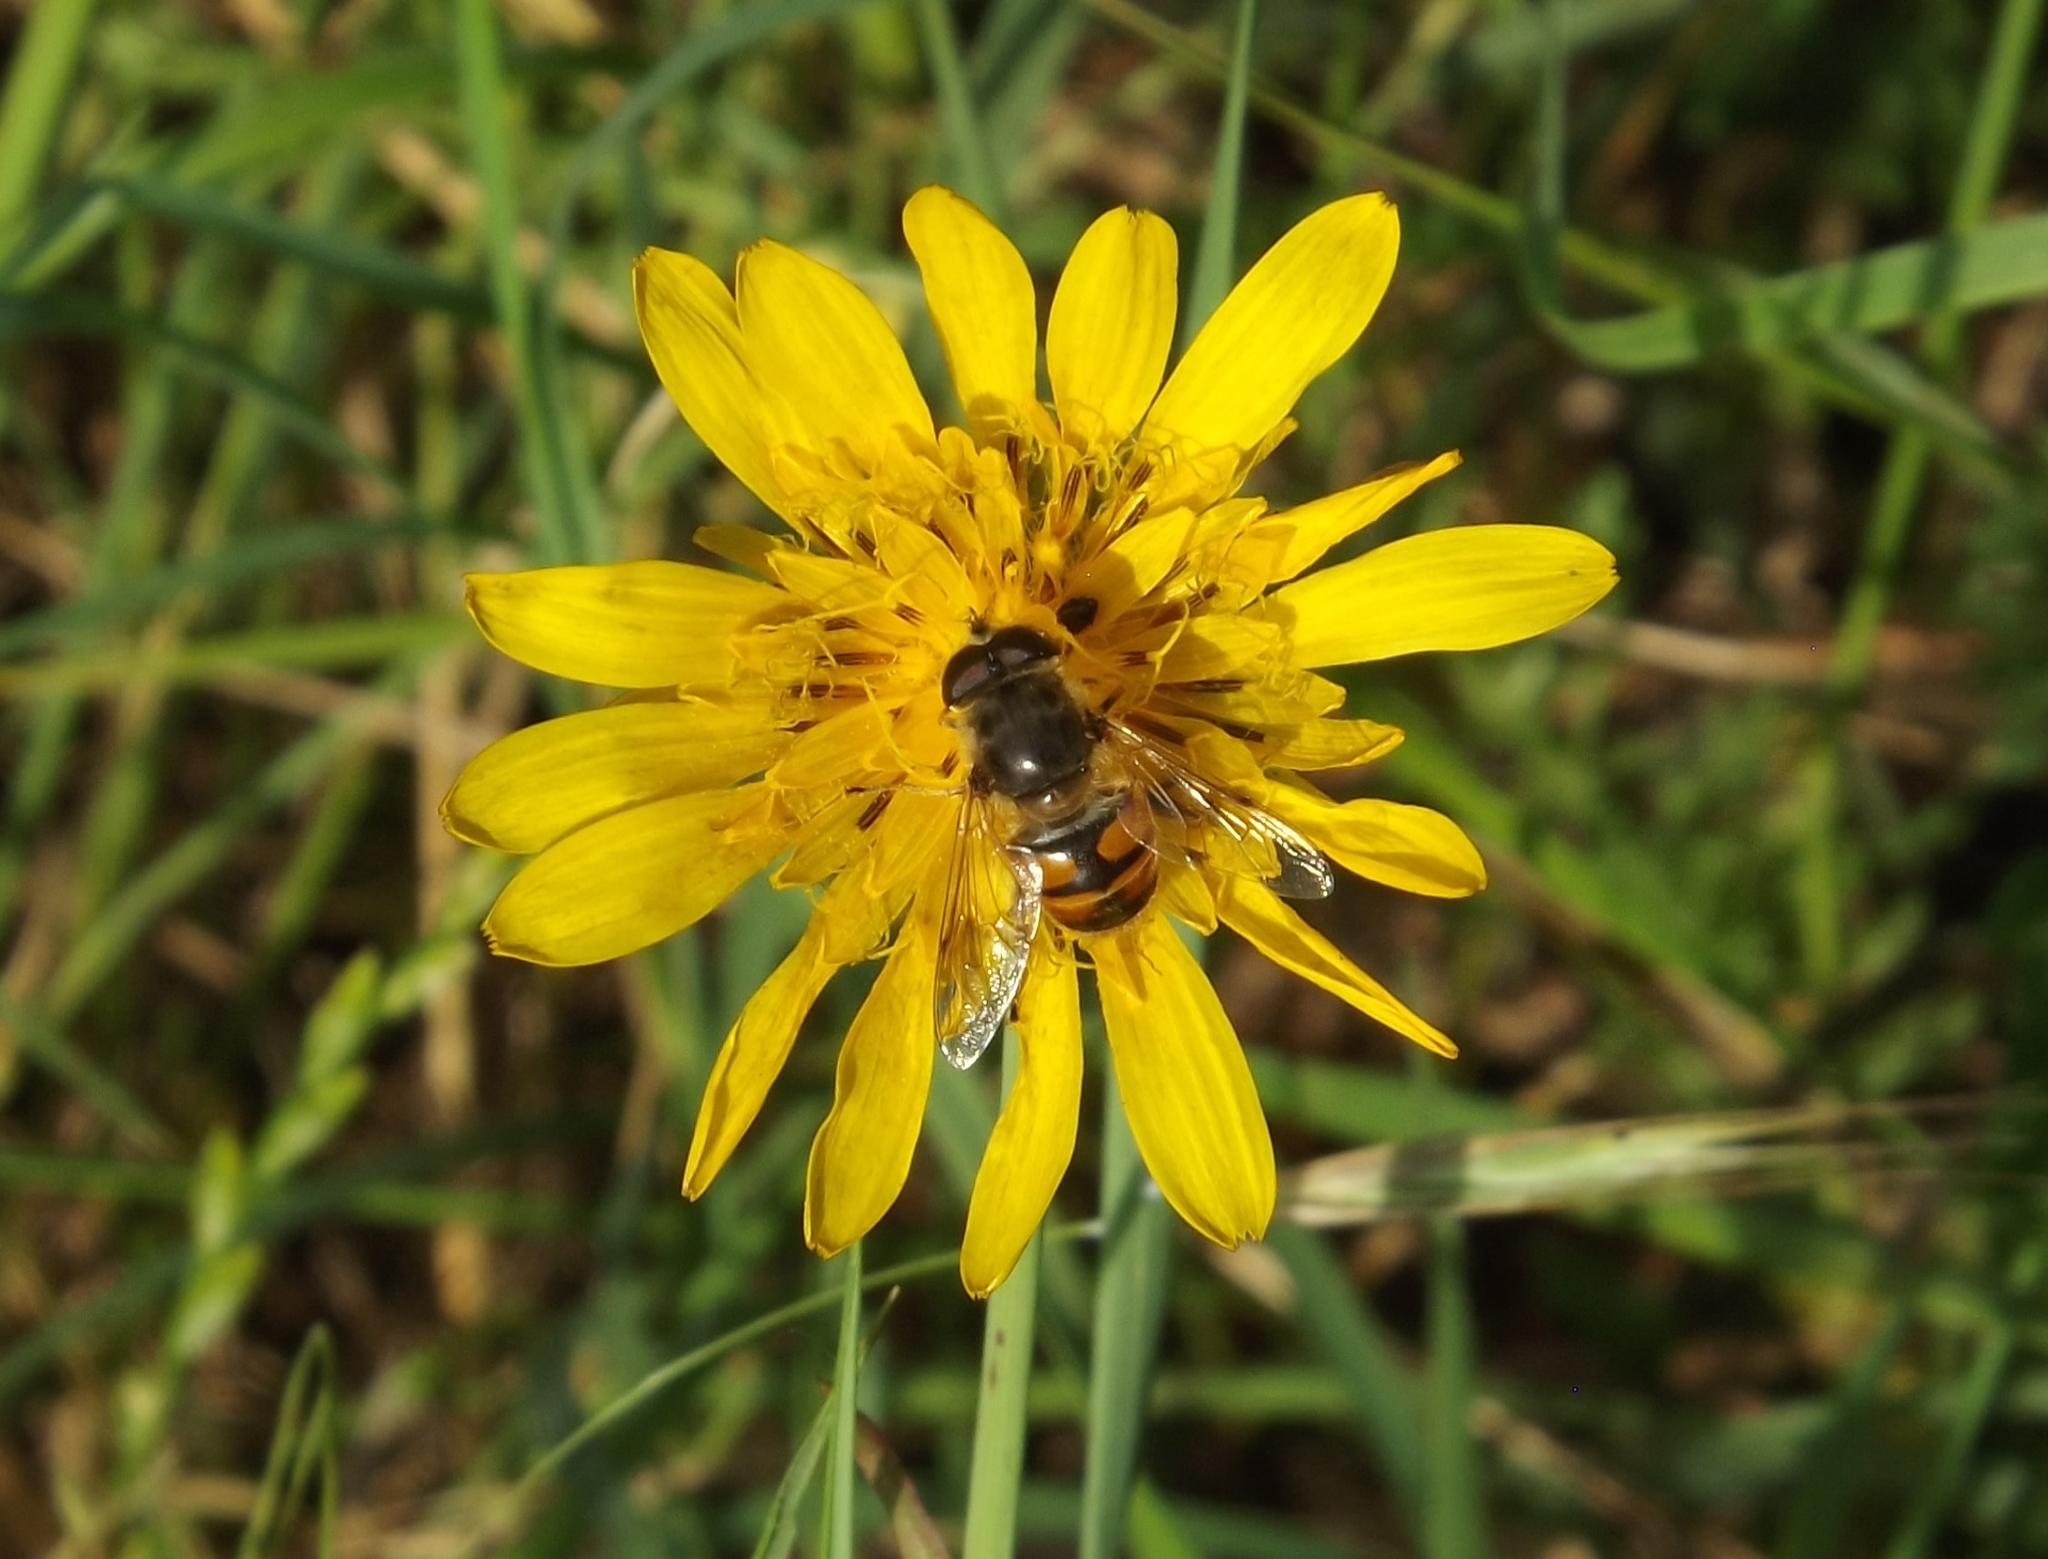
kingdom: Animalia
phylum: Arthropoda
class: Insecta
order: Diptera
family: Syrphidae
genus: Eristalis
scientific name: Eristalis tenax
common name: Drone fly
